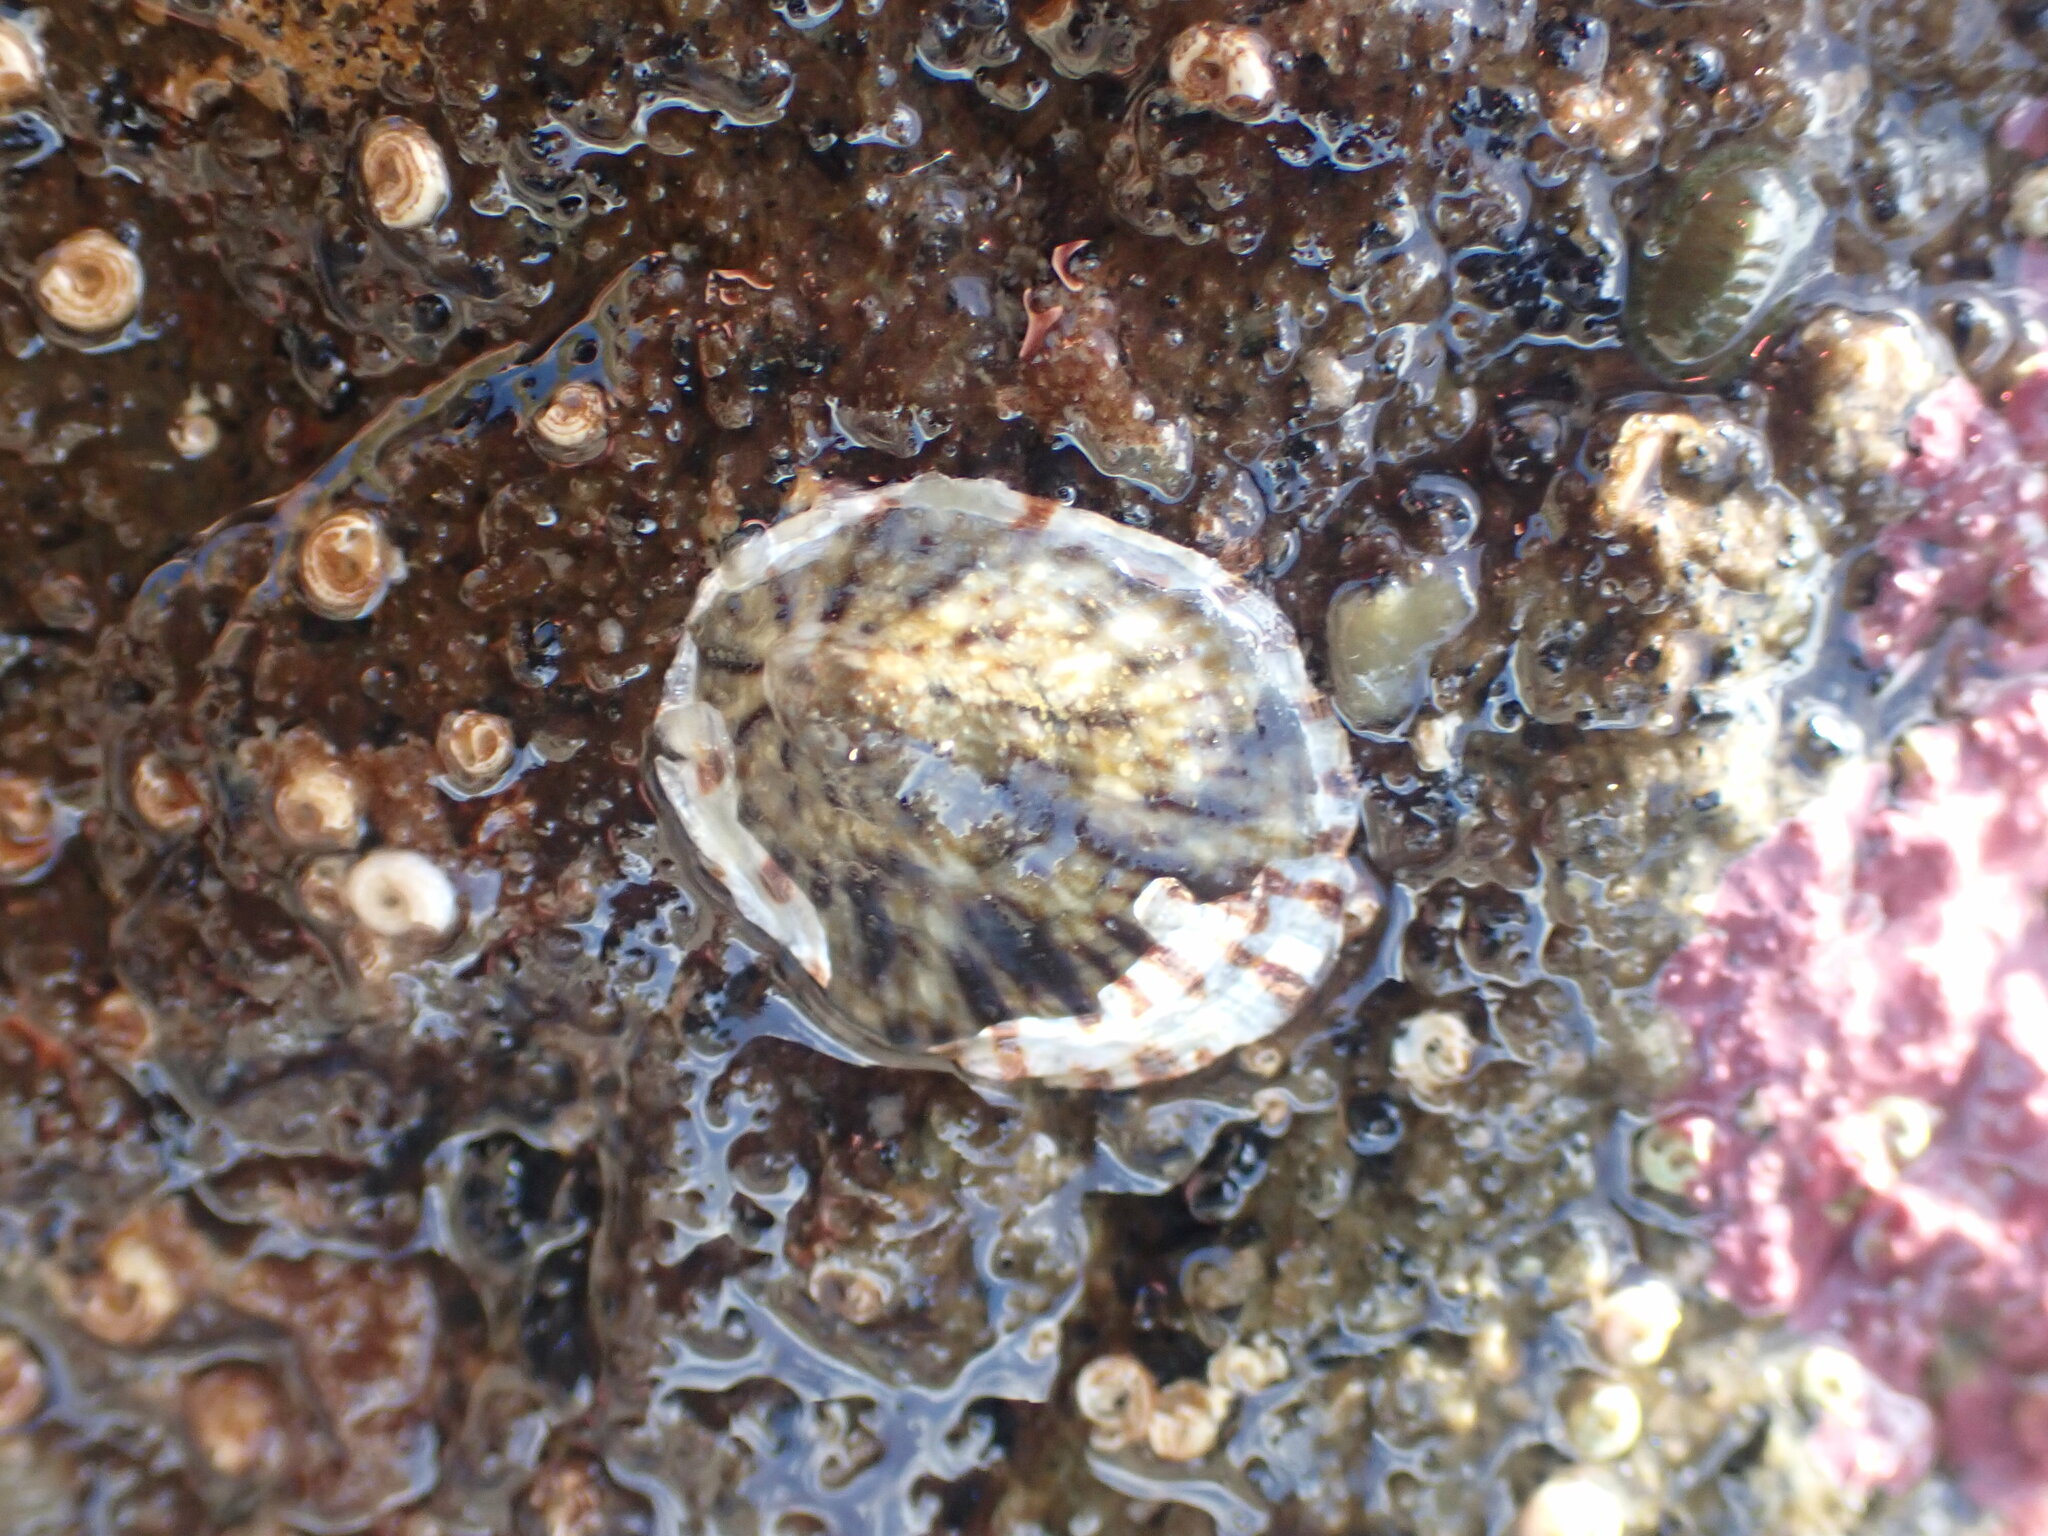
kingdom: Animalia
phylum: Mollusca
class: Gastropoda
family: Nacellidae
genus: Cellana
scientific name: Cellana radians
